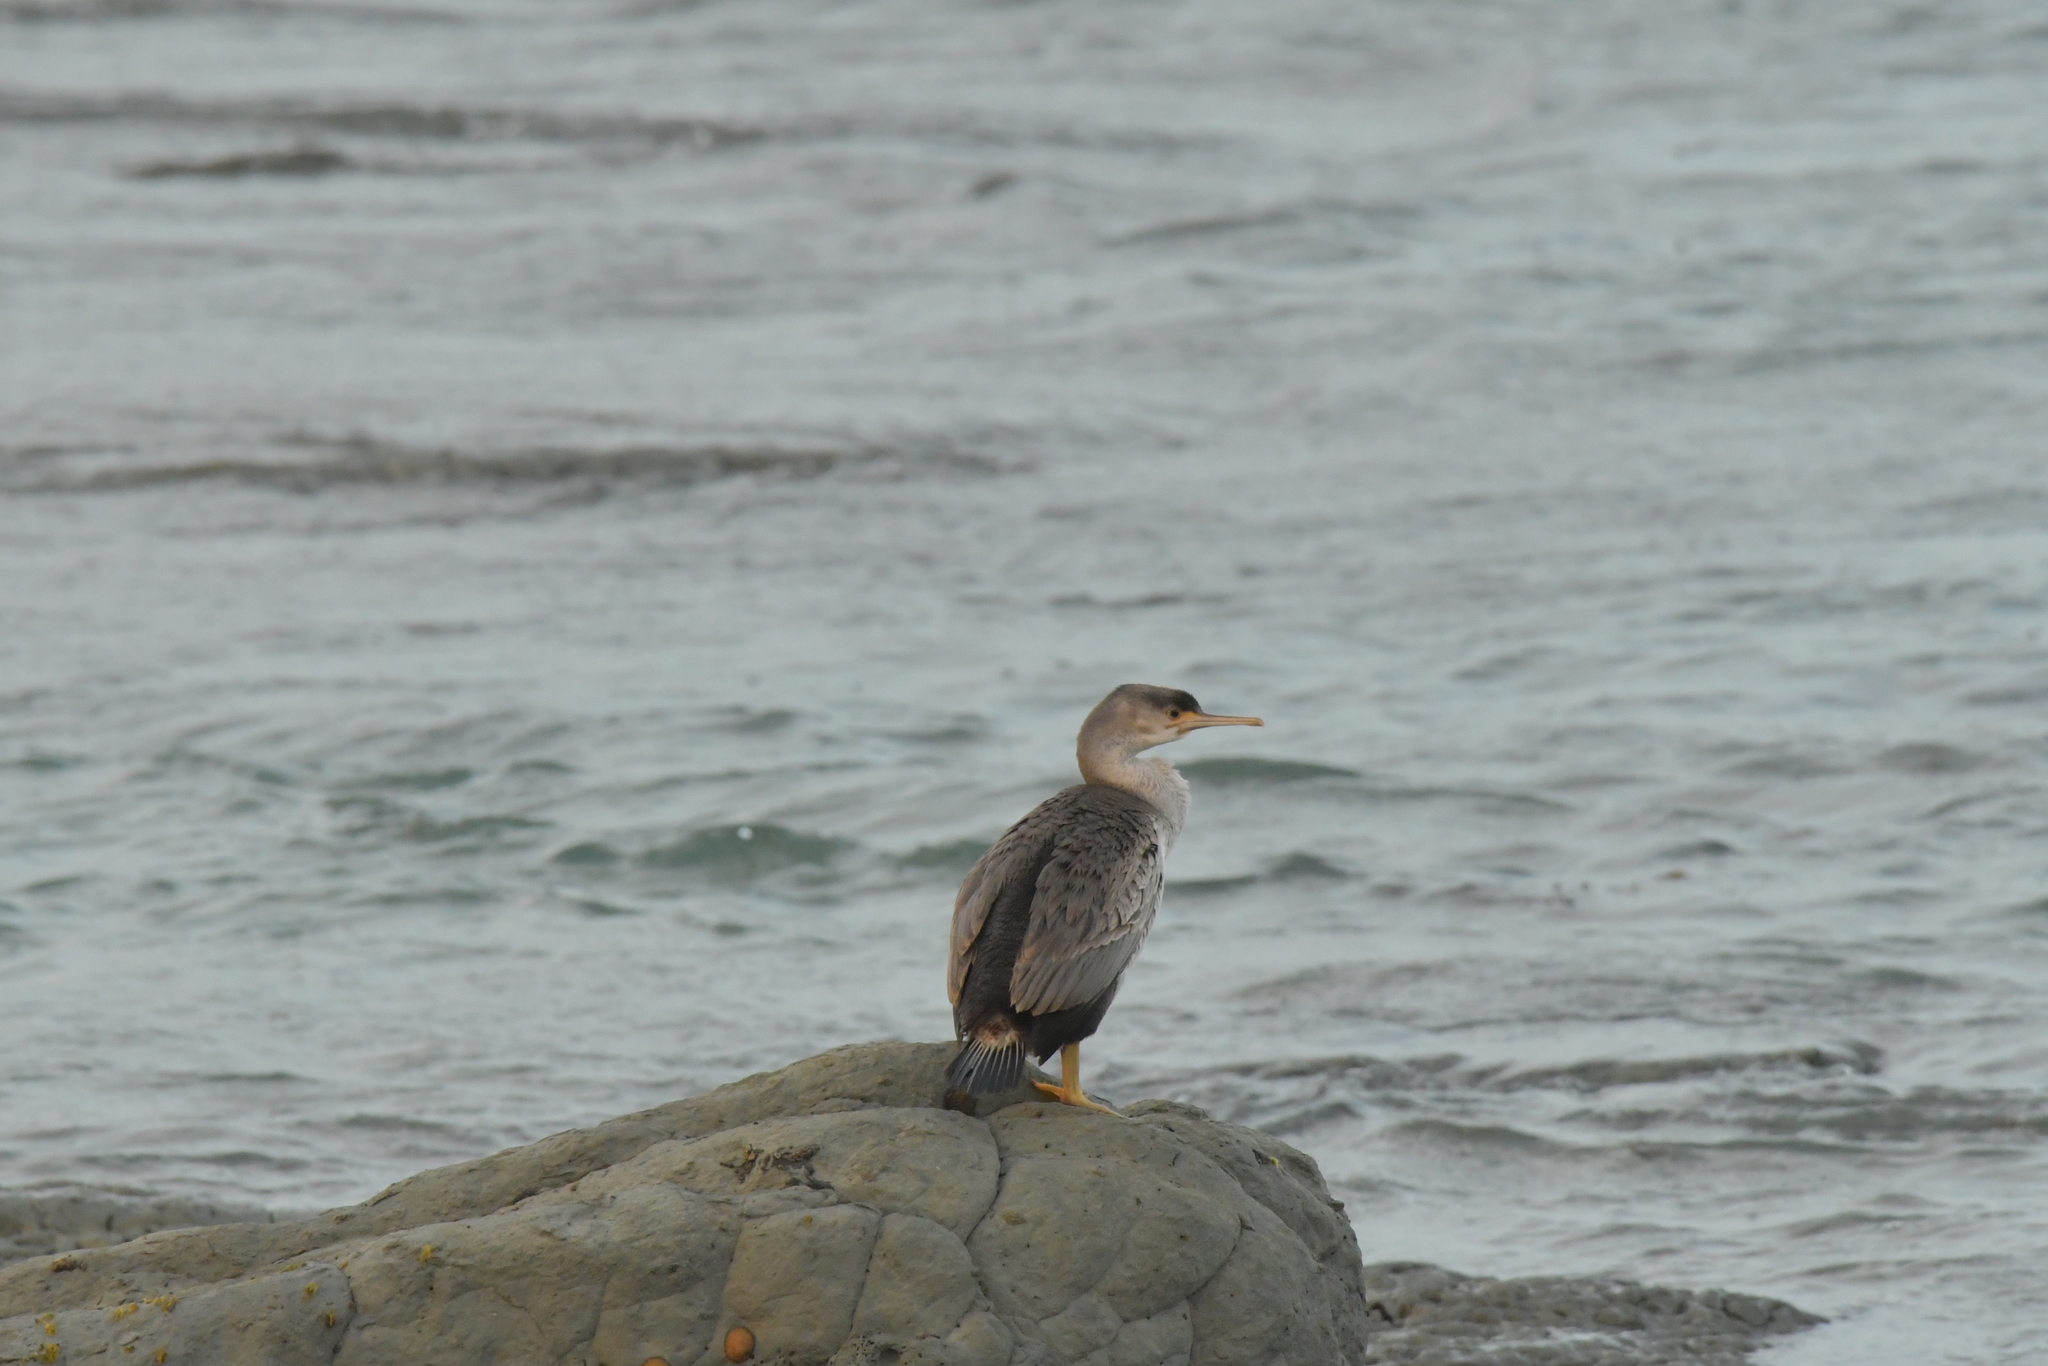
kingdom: Animalia
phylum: Chordata
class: Aves
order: Suliformes
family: Phalacrocoracidae
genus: Phalacrocorax
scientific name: Phalacrocorax punctatus
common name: Spotted shag
